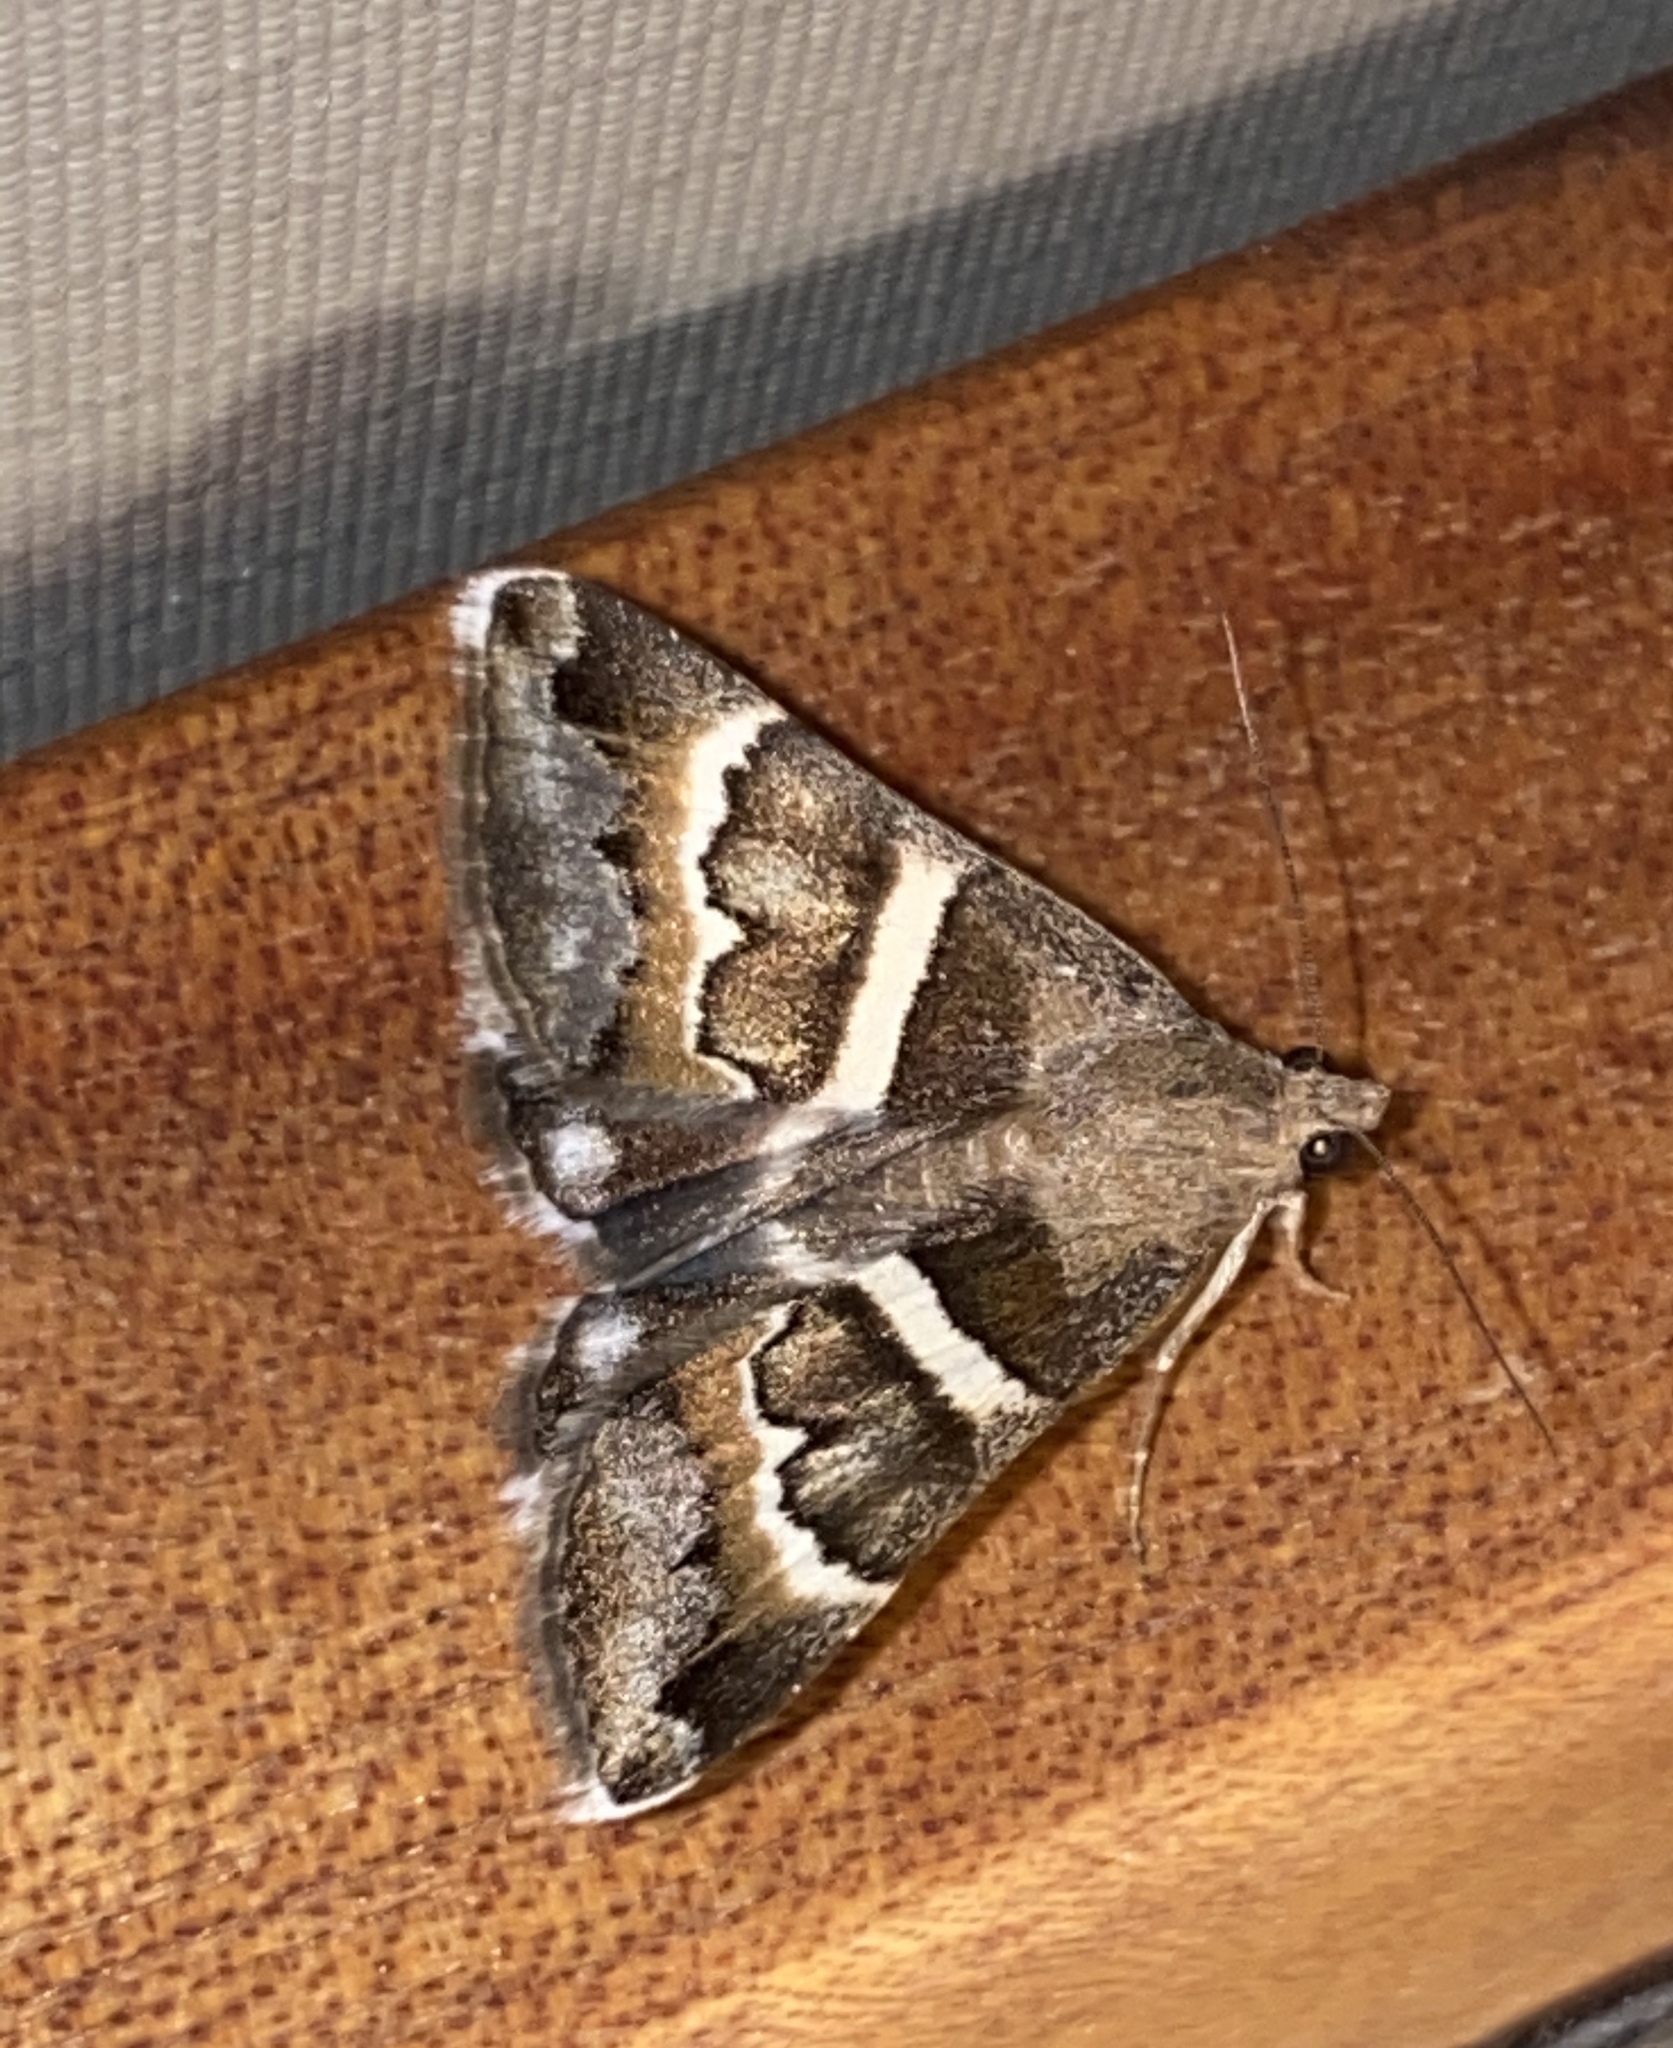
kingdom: Animalia
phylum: Arthropoda
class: Insecta
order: Lepidoptera
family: Erebidae
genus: Grammodes
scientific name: Grammodes stolida
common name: Geometrician
